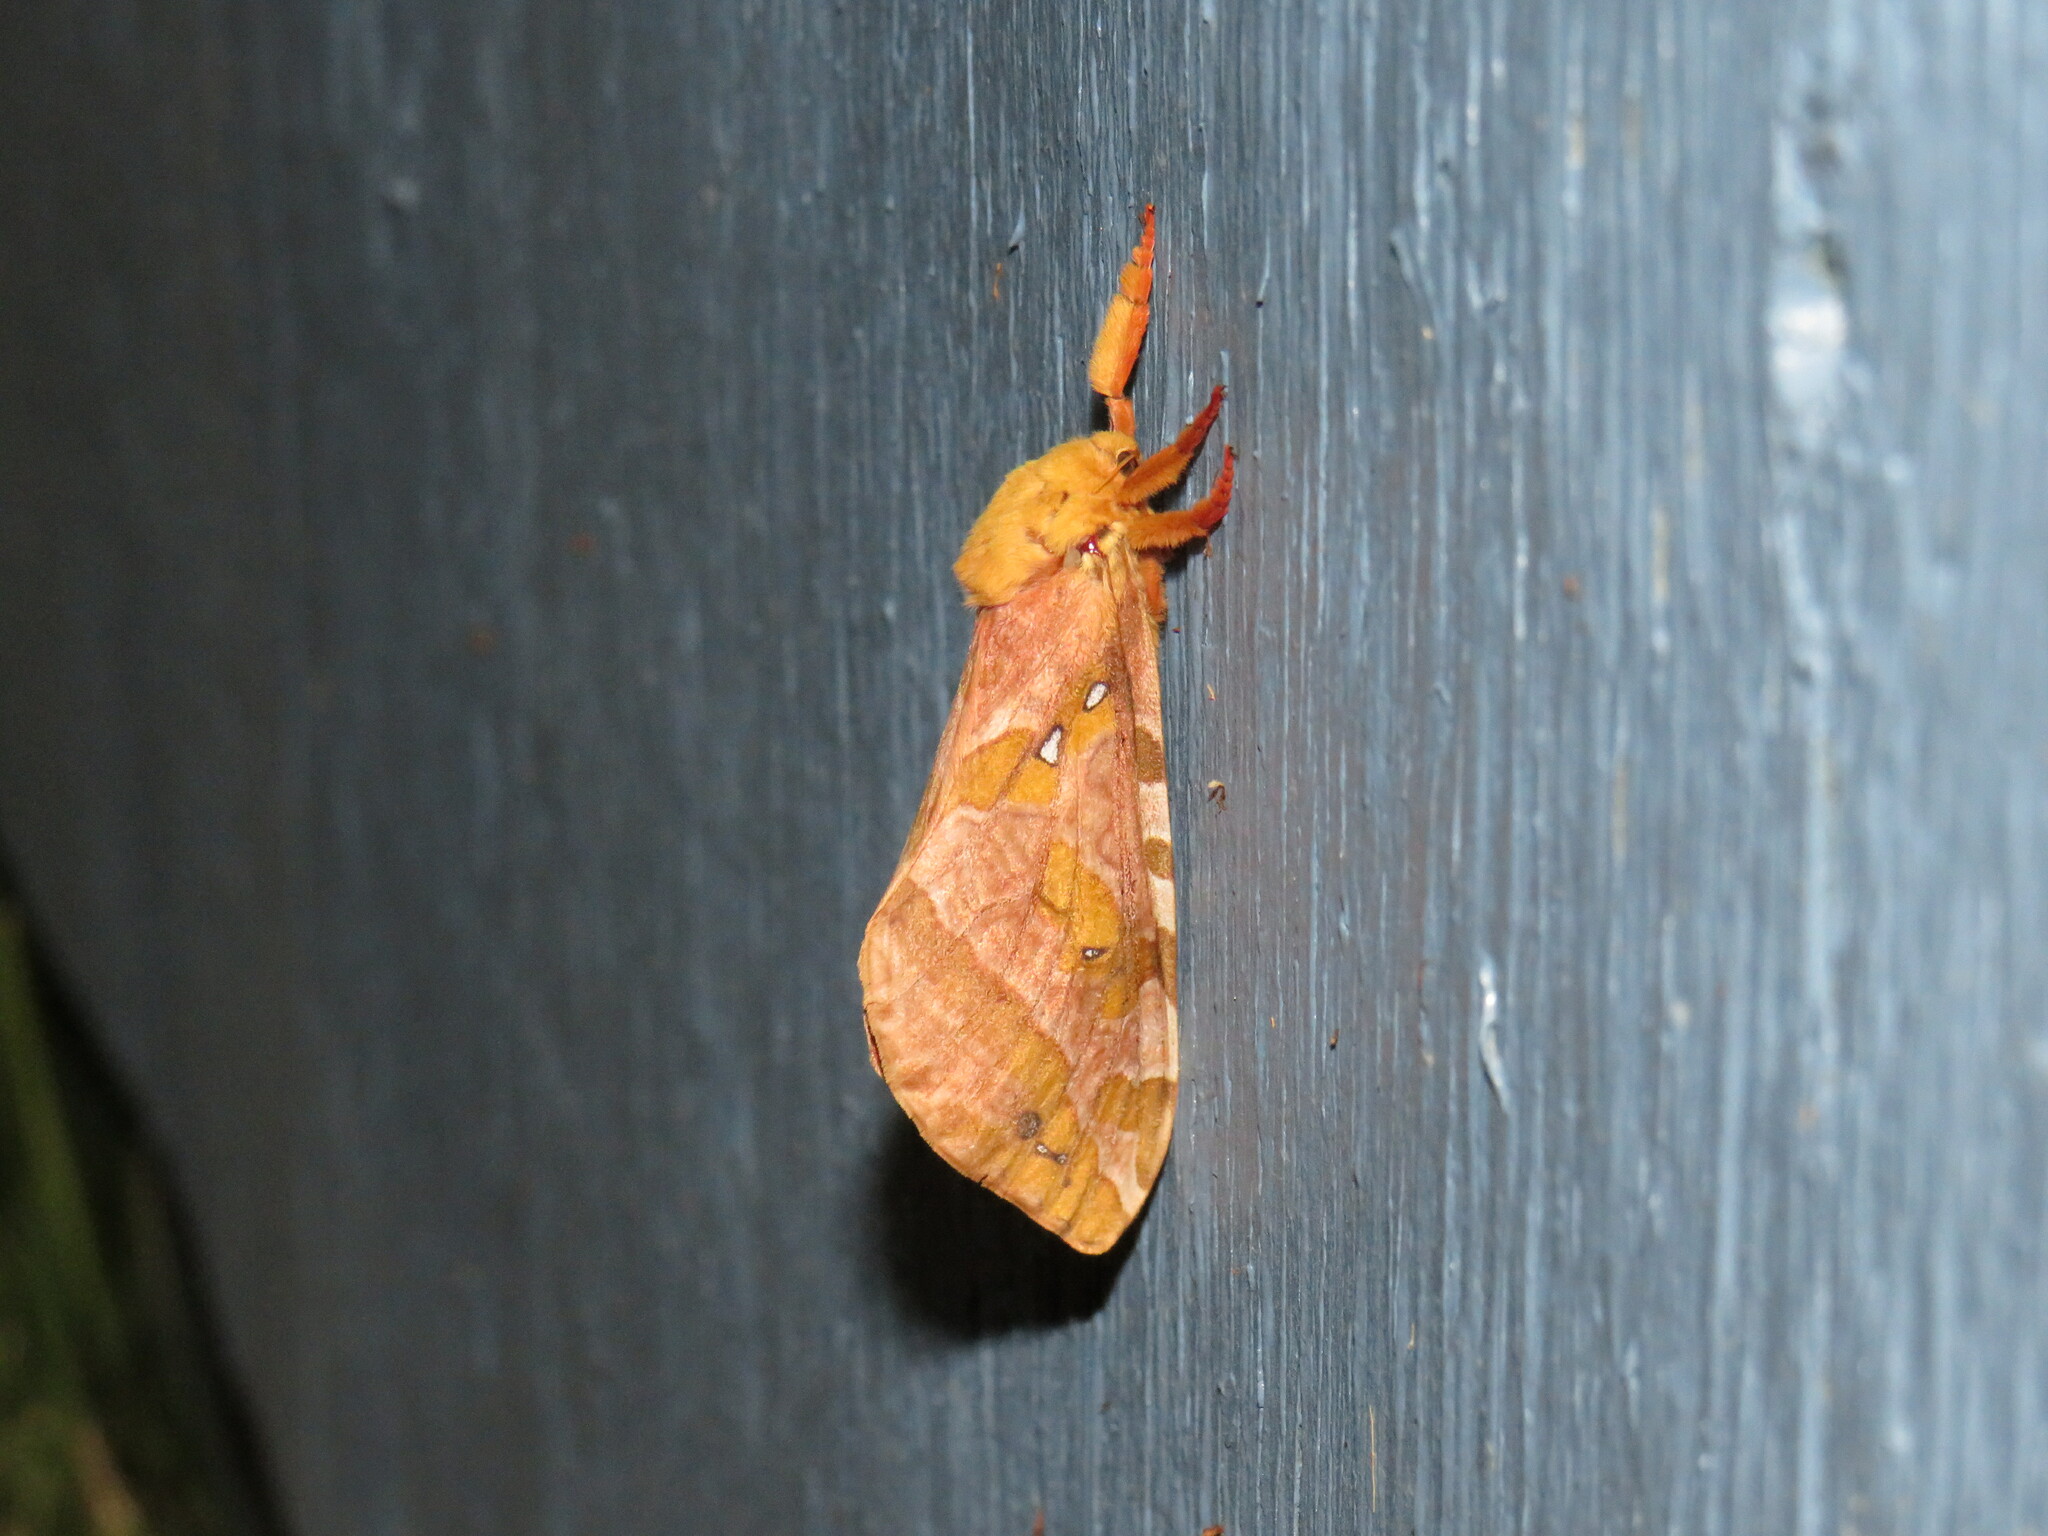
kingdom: Animalia
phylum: Arthropoda
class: Insecta
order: Lepidoptera
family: Hepialidae
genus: Sthenopis
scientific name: Sthenopis purpurascens
